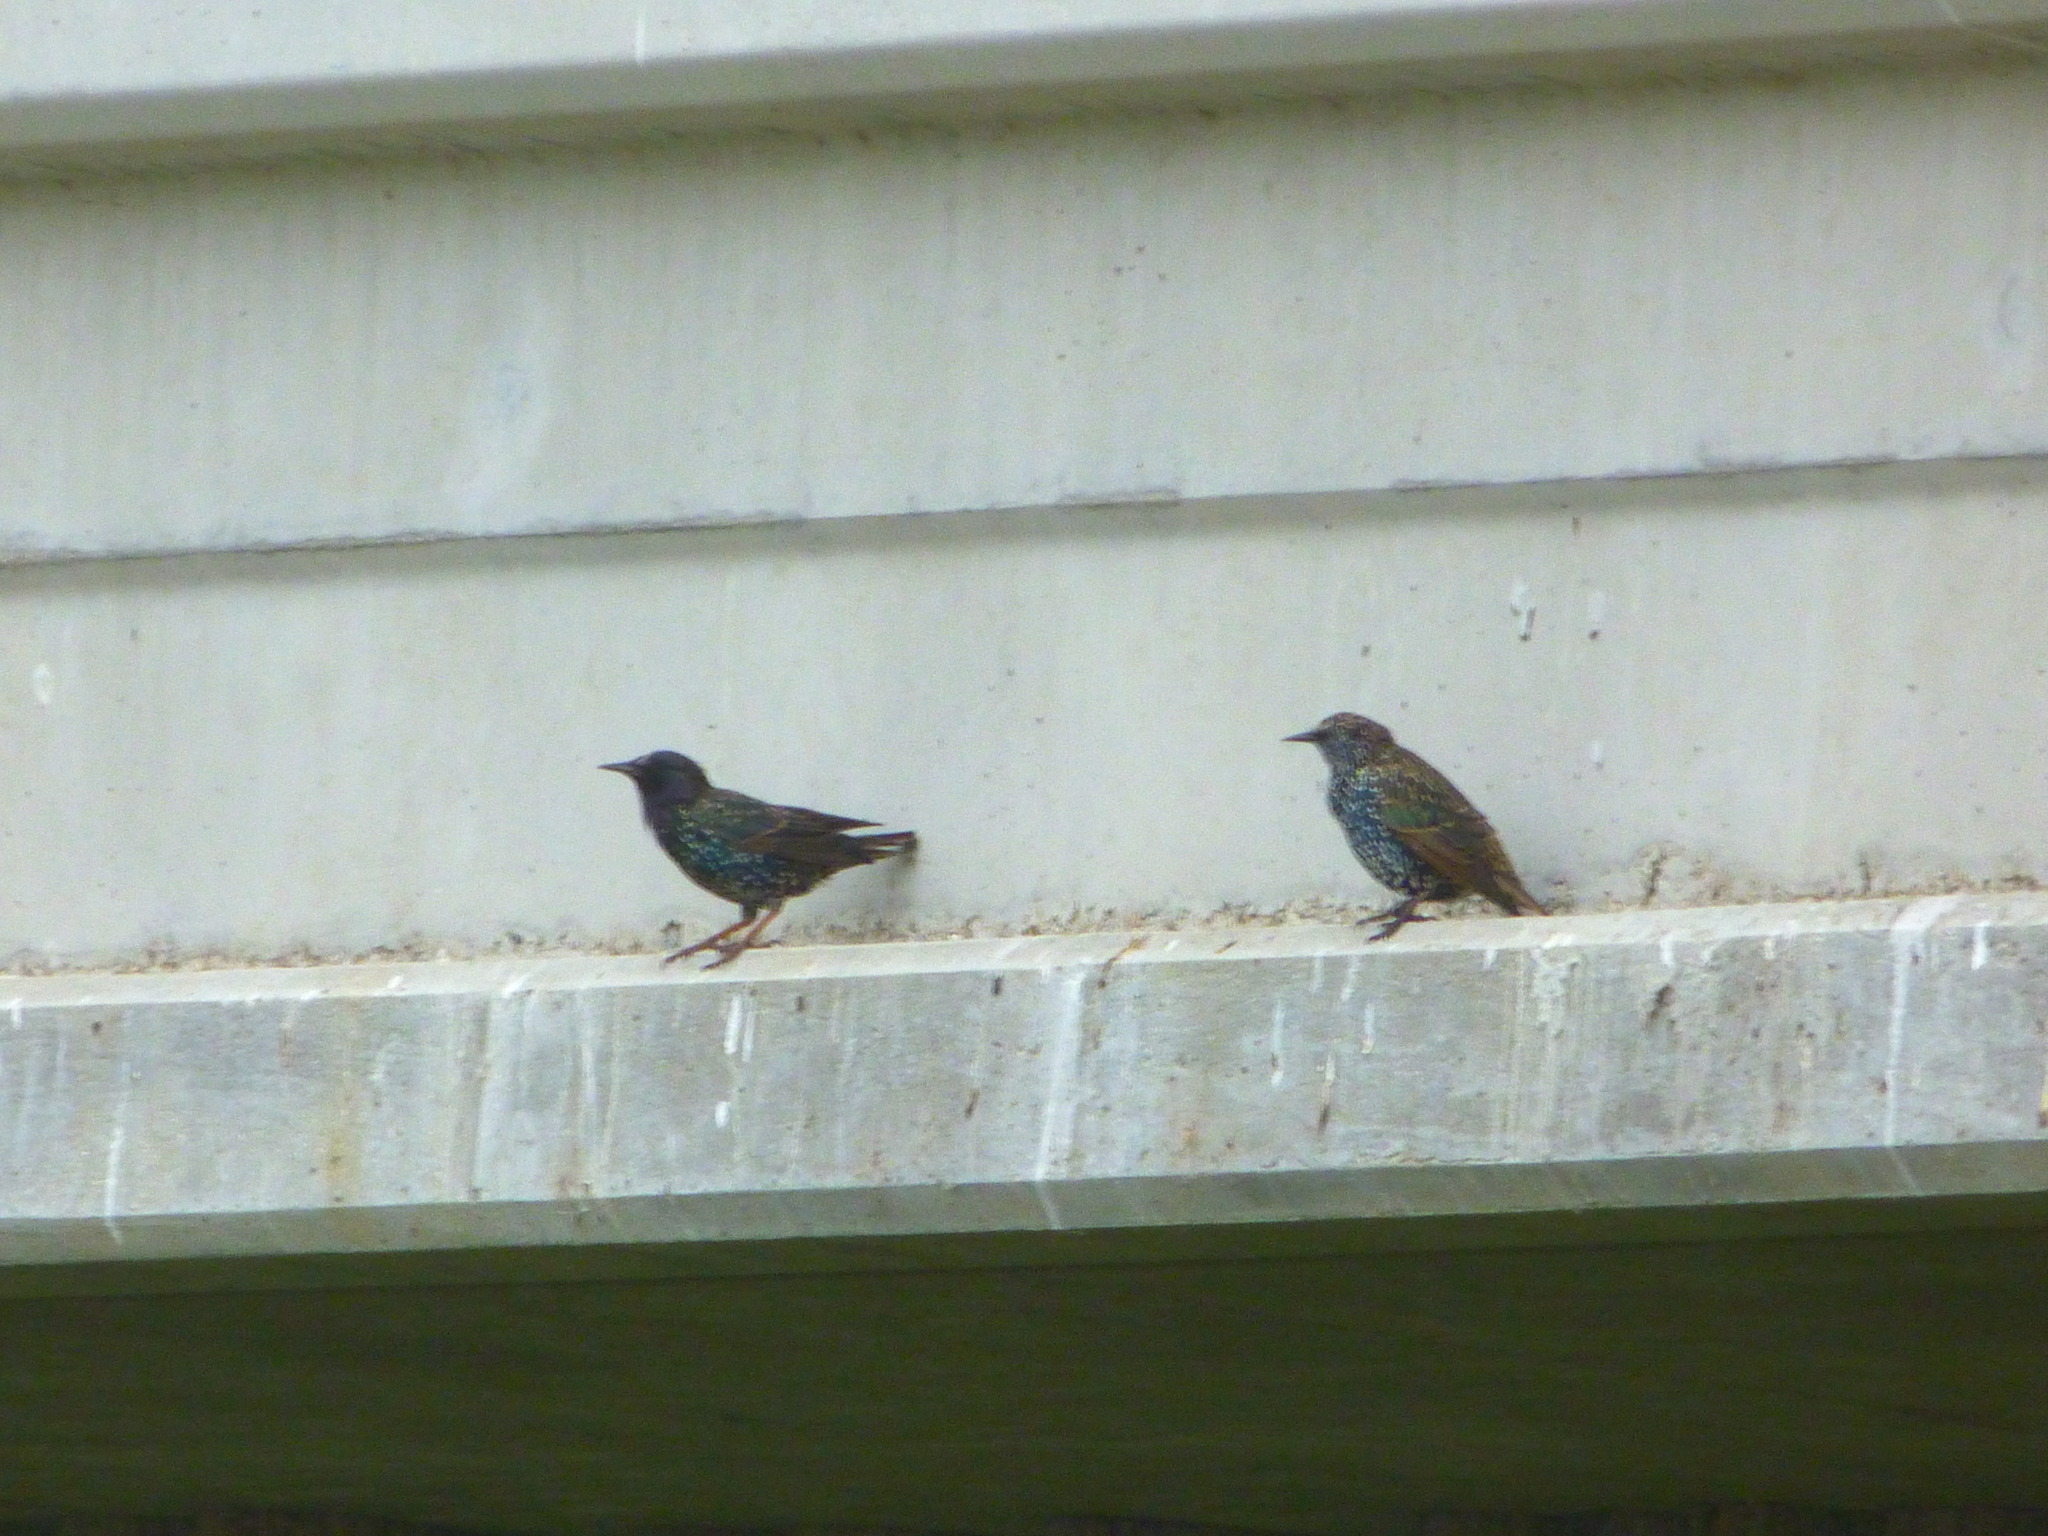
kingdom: Animalia
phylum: Chordata
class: Aves
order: Passeriformes
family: Sturnidae
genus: Sturnus
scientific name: Sturnus vulgaris
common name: Common starling
